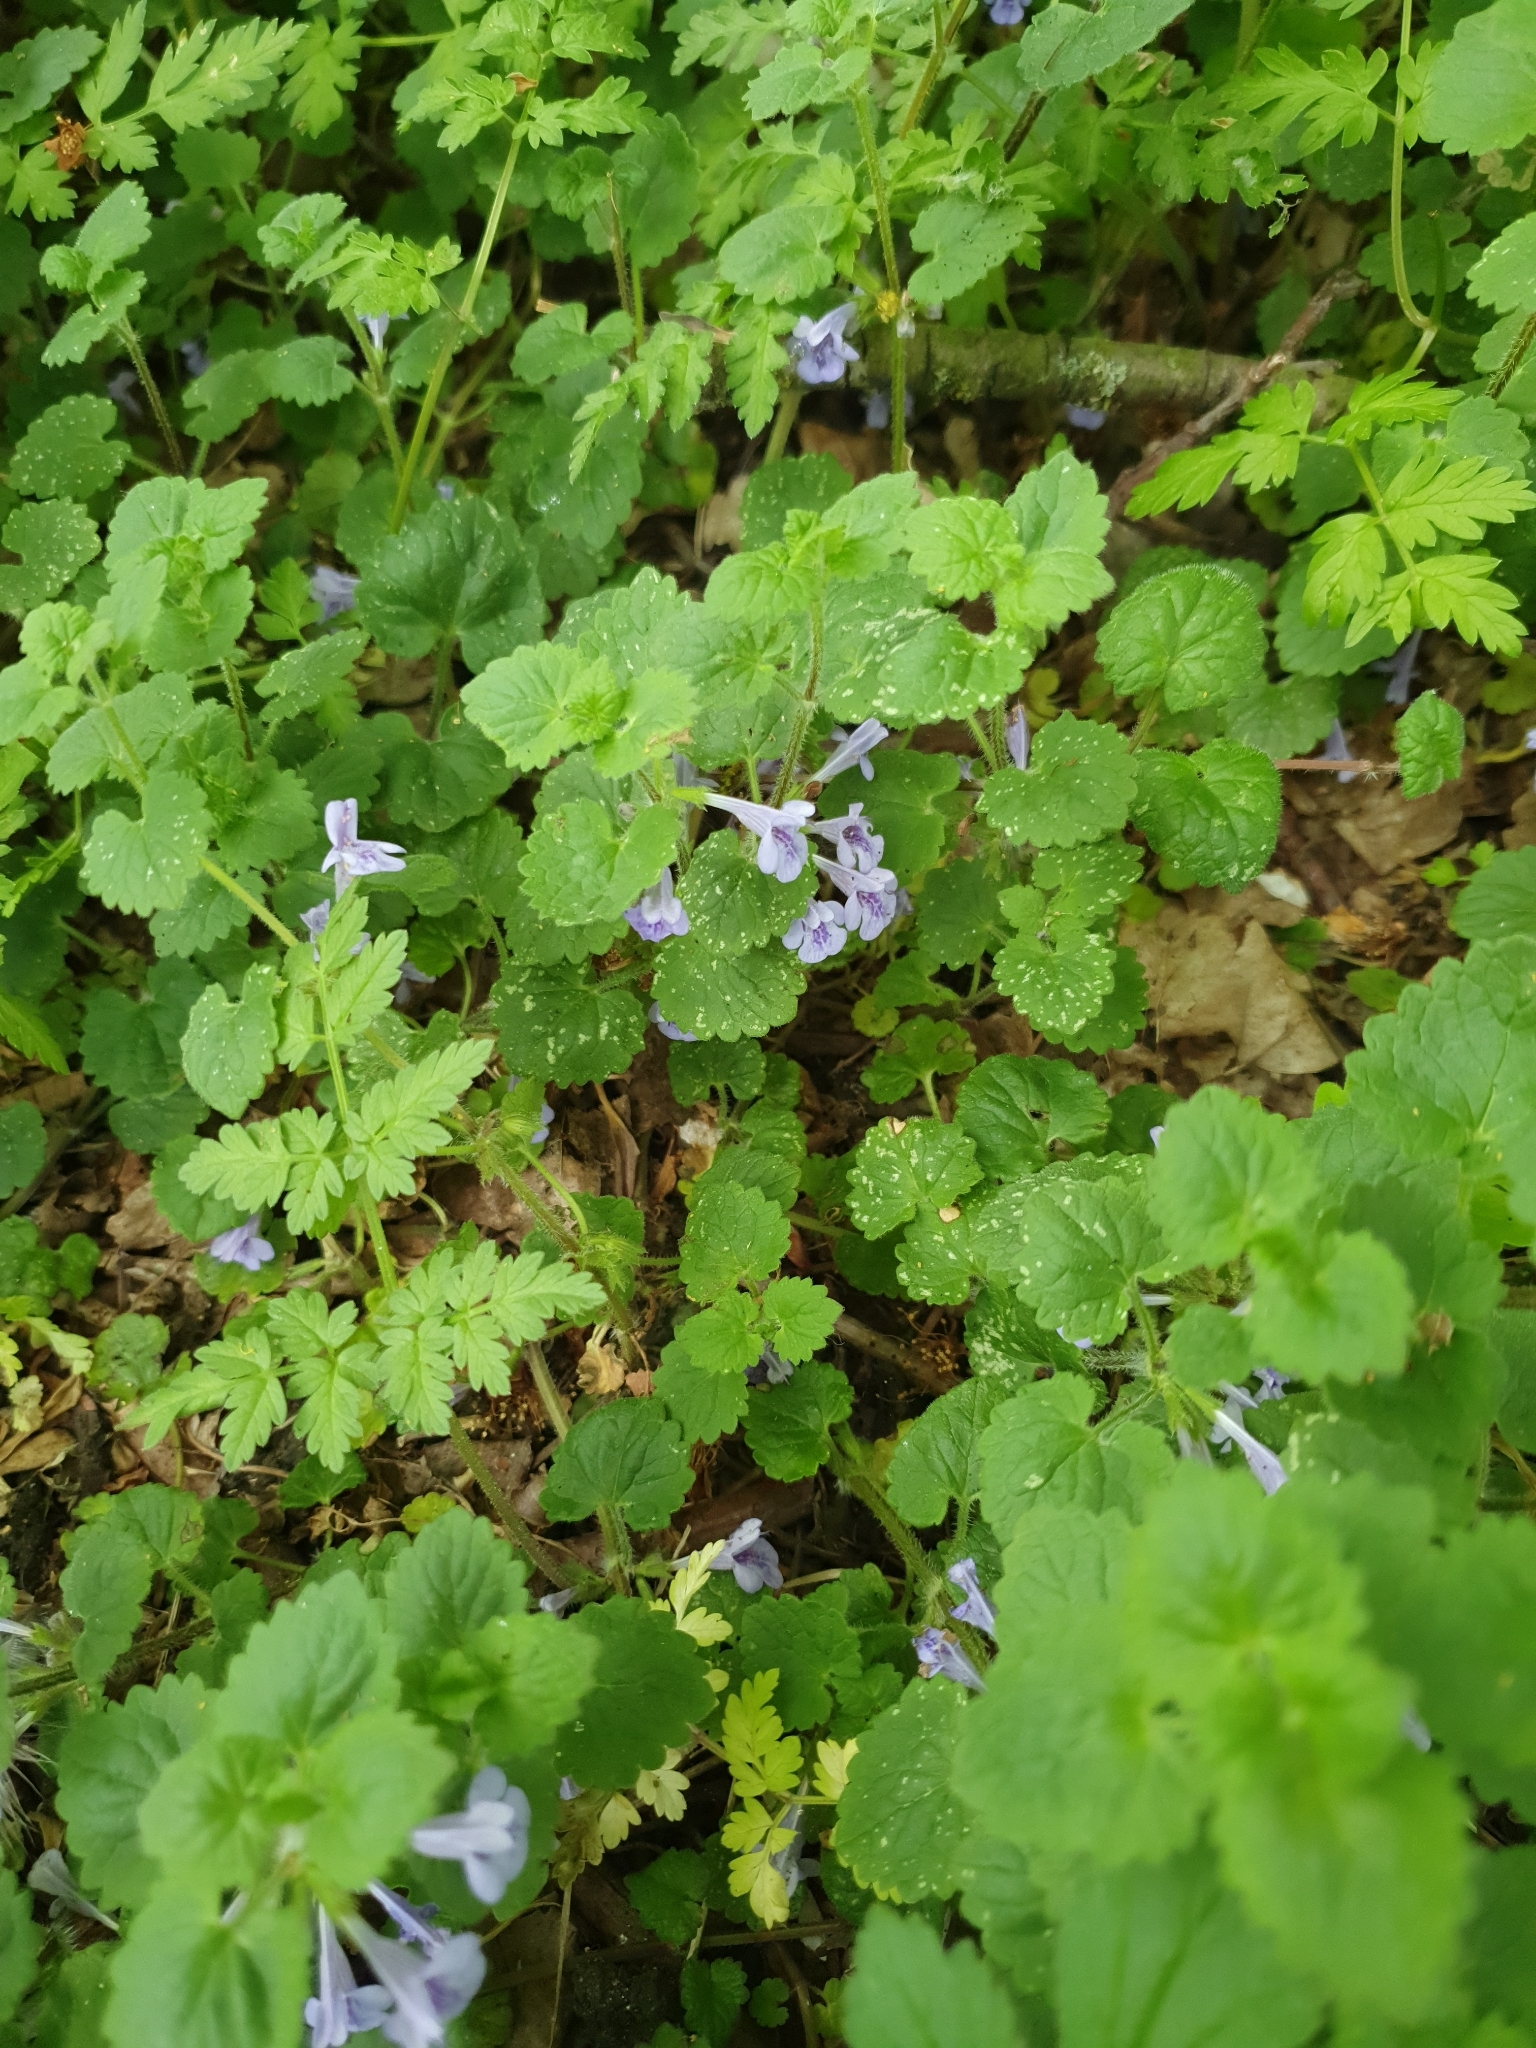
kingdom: Plantae
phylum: Tracheophyta
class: Magnoliopsida
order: Lamiales
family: Lamiaceae
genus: Glechoma
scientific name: Glechoma hederacea
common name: Ground ivy
